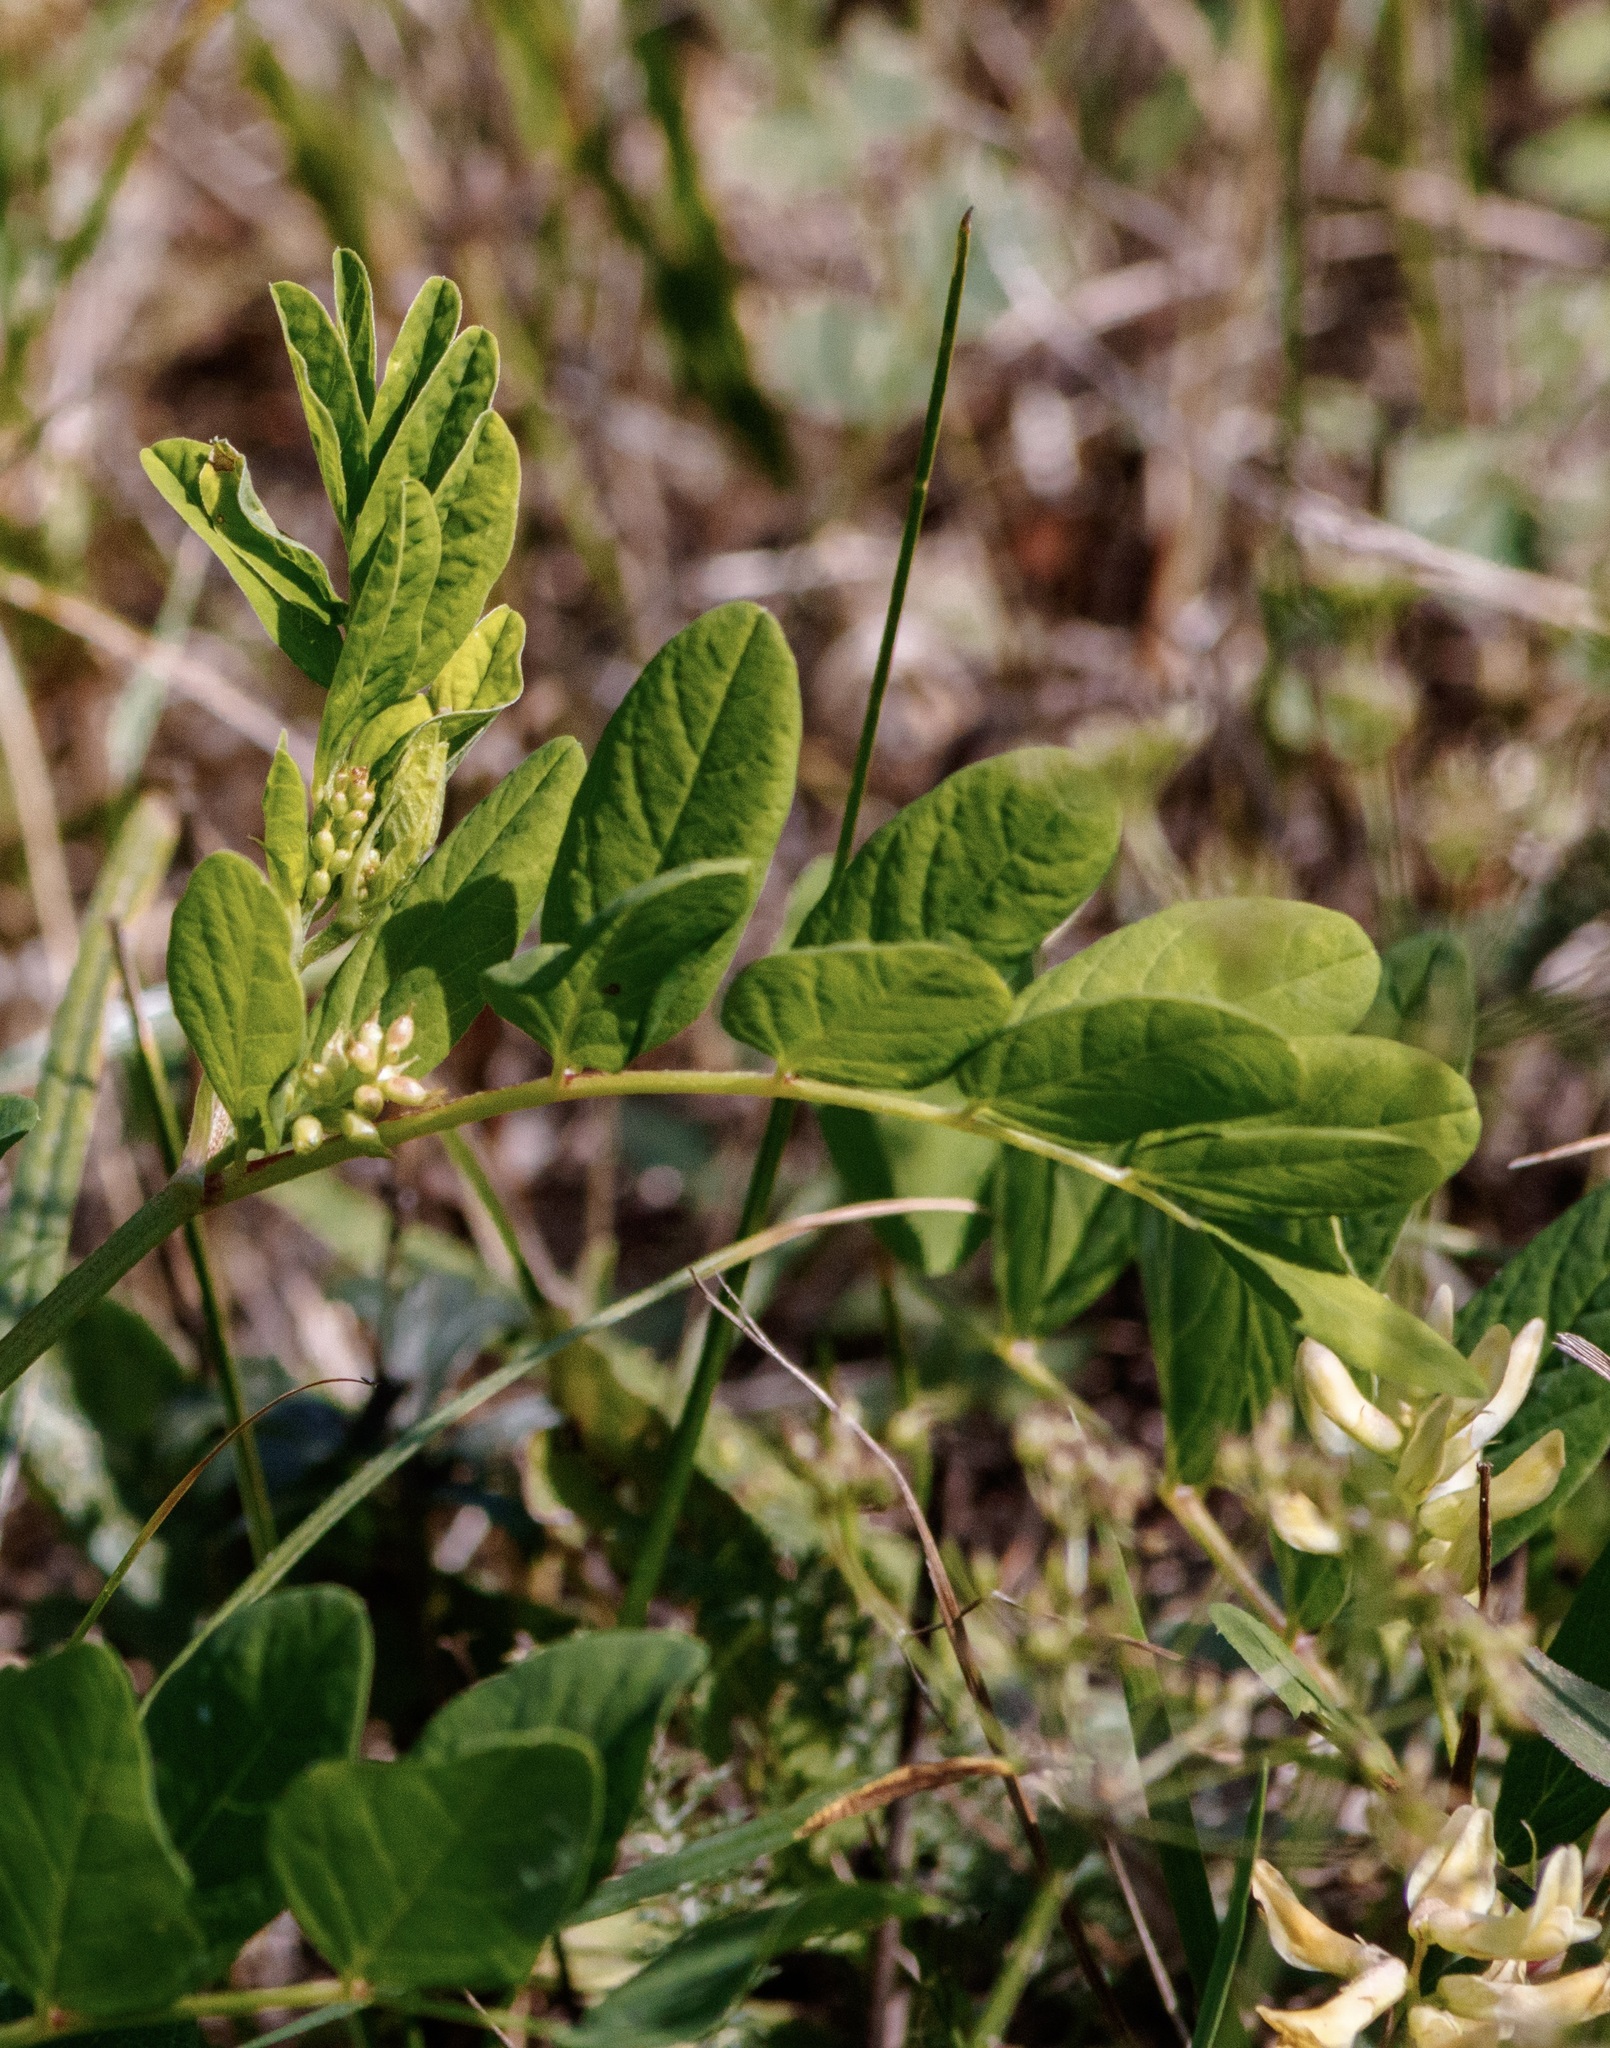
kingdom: Plantae
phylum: Tracheophyta
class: Magnoliopsida
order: Fabales
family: Fabaceae
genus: Astragalus
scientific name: Astragalus glycyphyllos
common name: Wild liquorice
